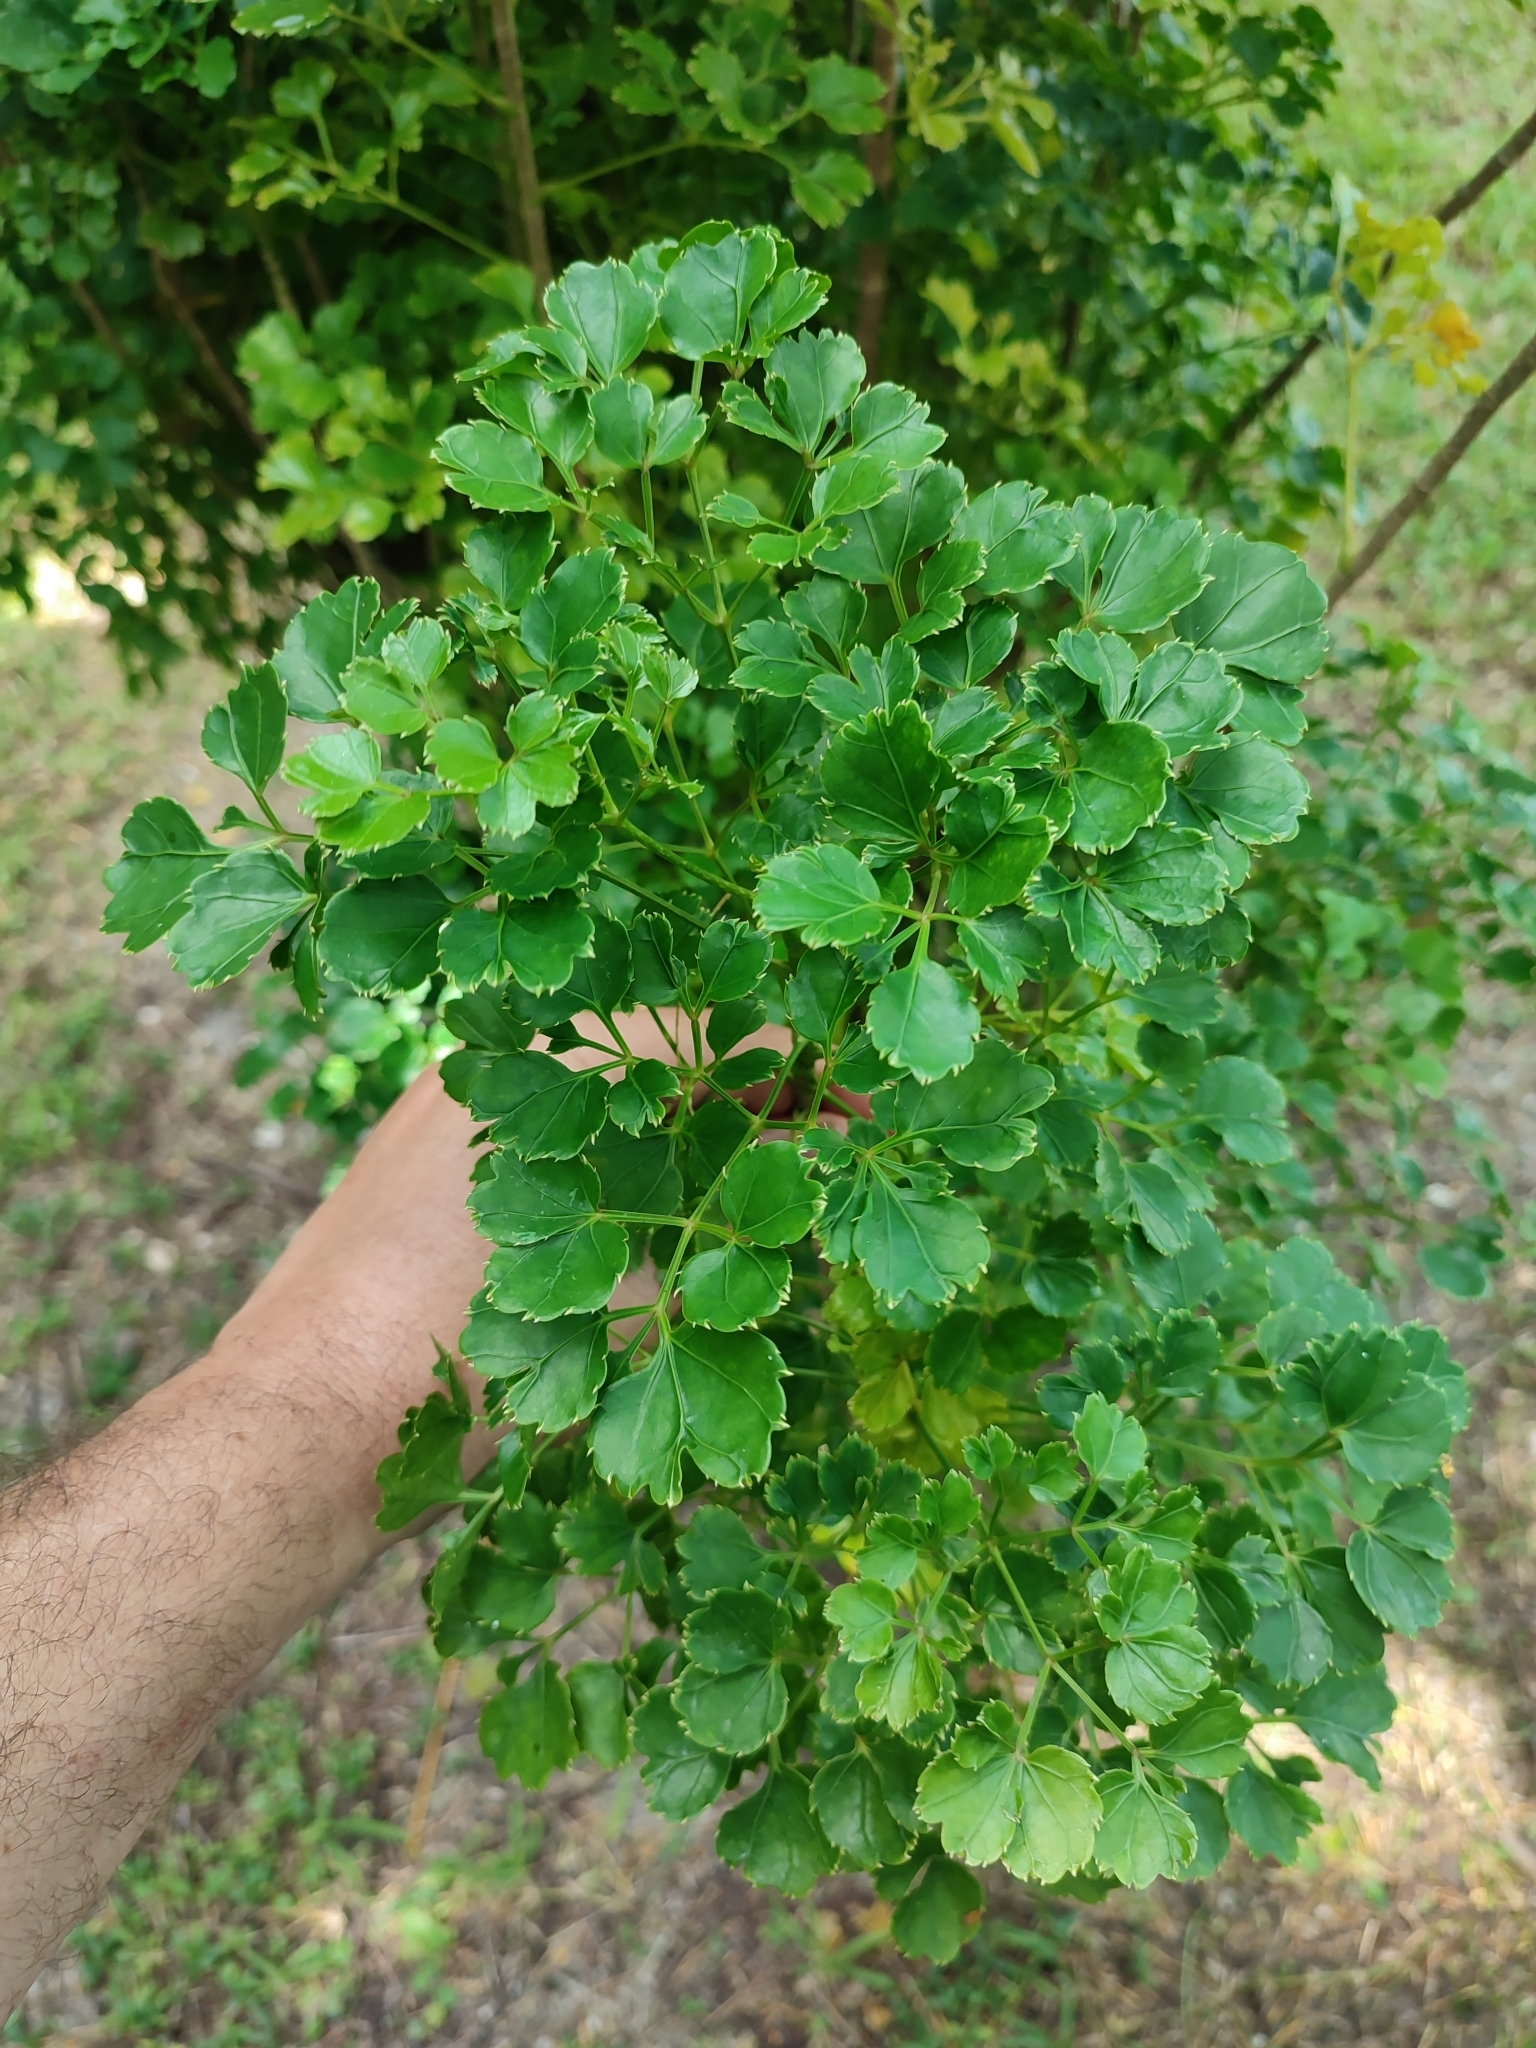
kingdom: Plantae
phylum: Tracheophyta
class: Magnoliopsida
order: Apiales
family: Araliaceae
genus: Polyscias
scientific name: Polyscias guilfoylei
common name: Geranium aralia
